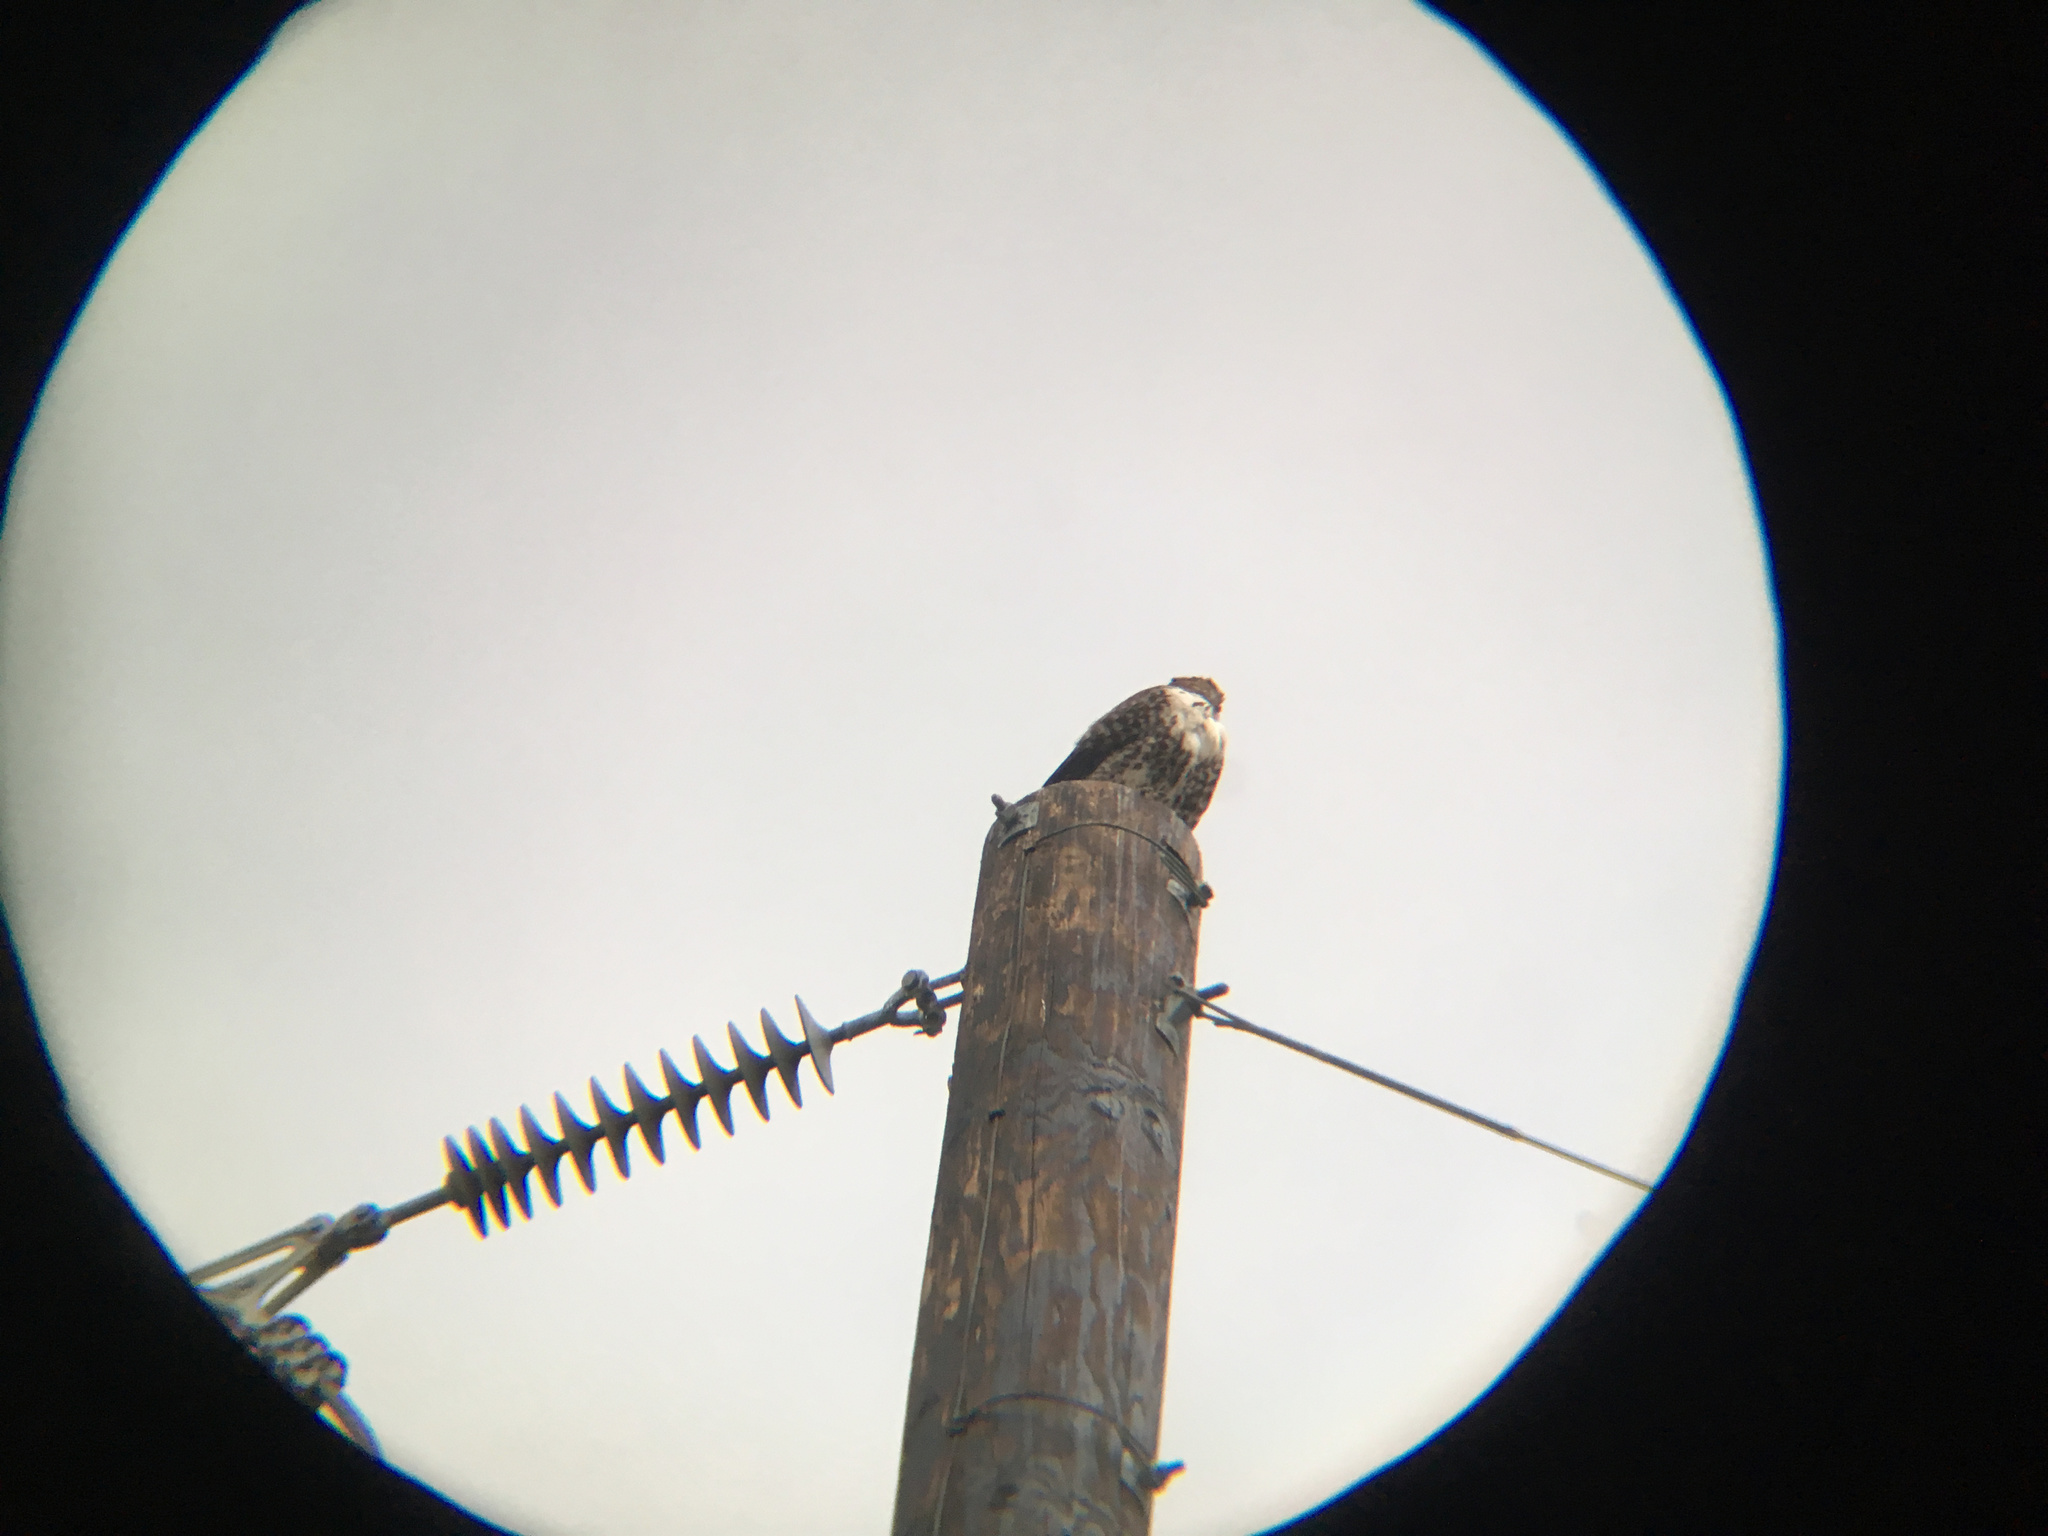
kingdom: Animalia
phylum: Chordata
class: Aves
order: Accipitriformes
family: Accipitridae
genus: Buteo
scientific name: Buteo jamaicensis
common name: Red-tailed hawk
